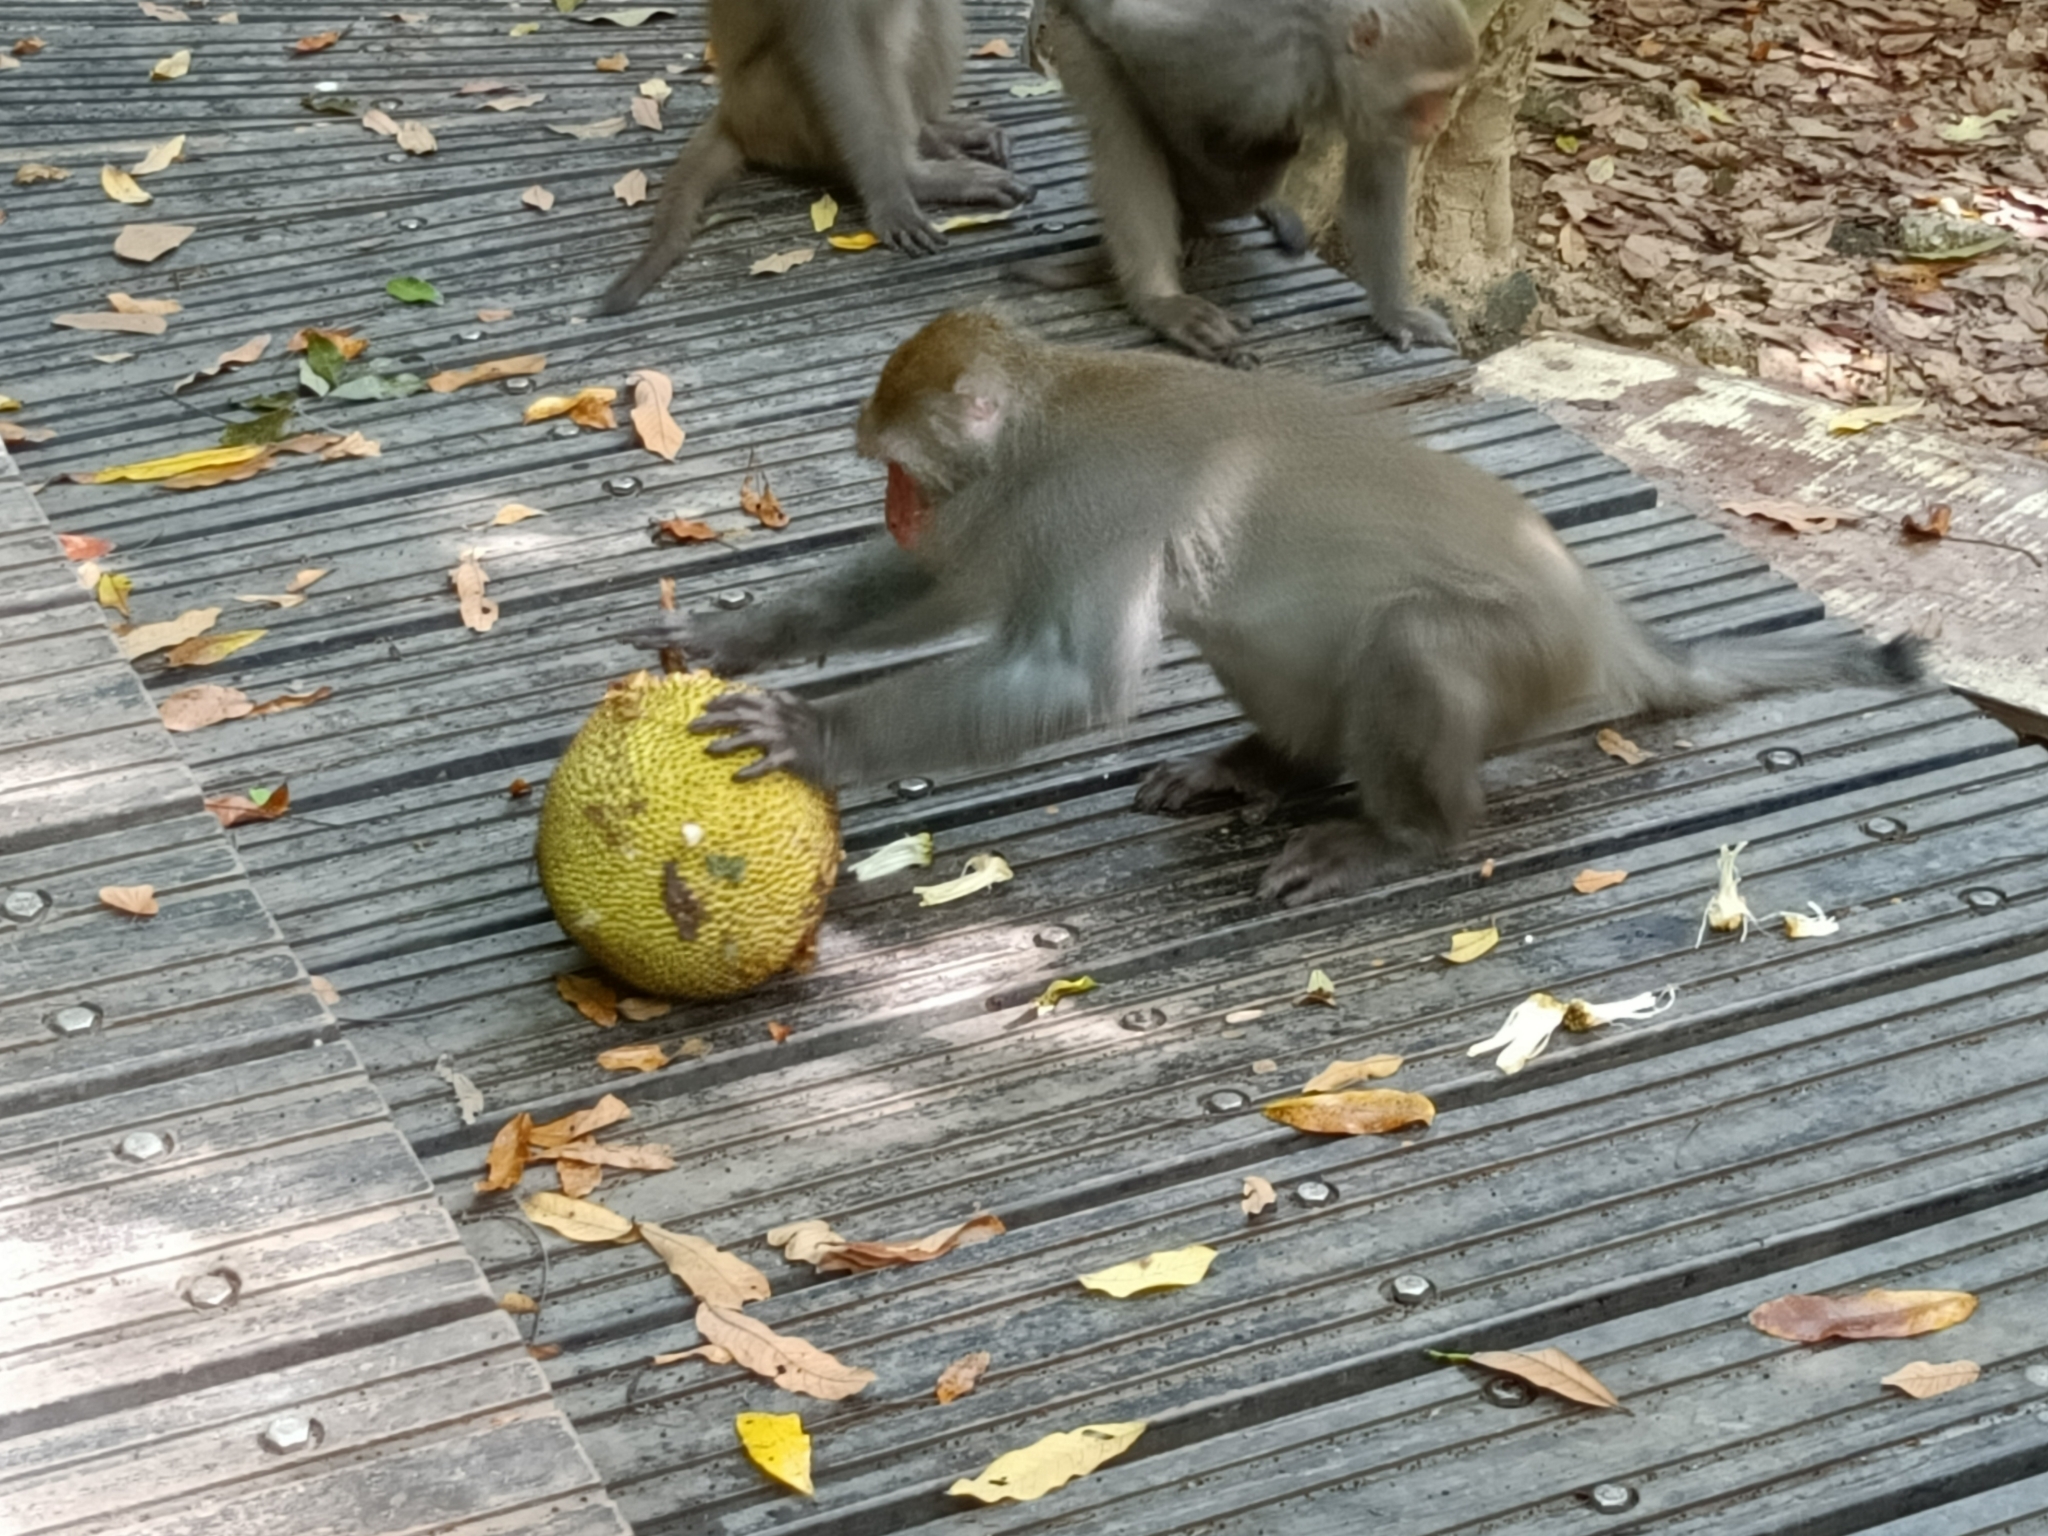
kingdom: Animalia
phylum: Chordata
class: Mammalia
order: Primates
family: Cercopithecidae
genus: Macaca
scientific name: Macaca cyclopis
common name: Formosan rock macaque
